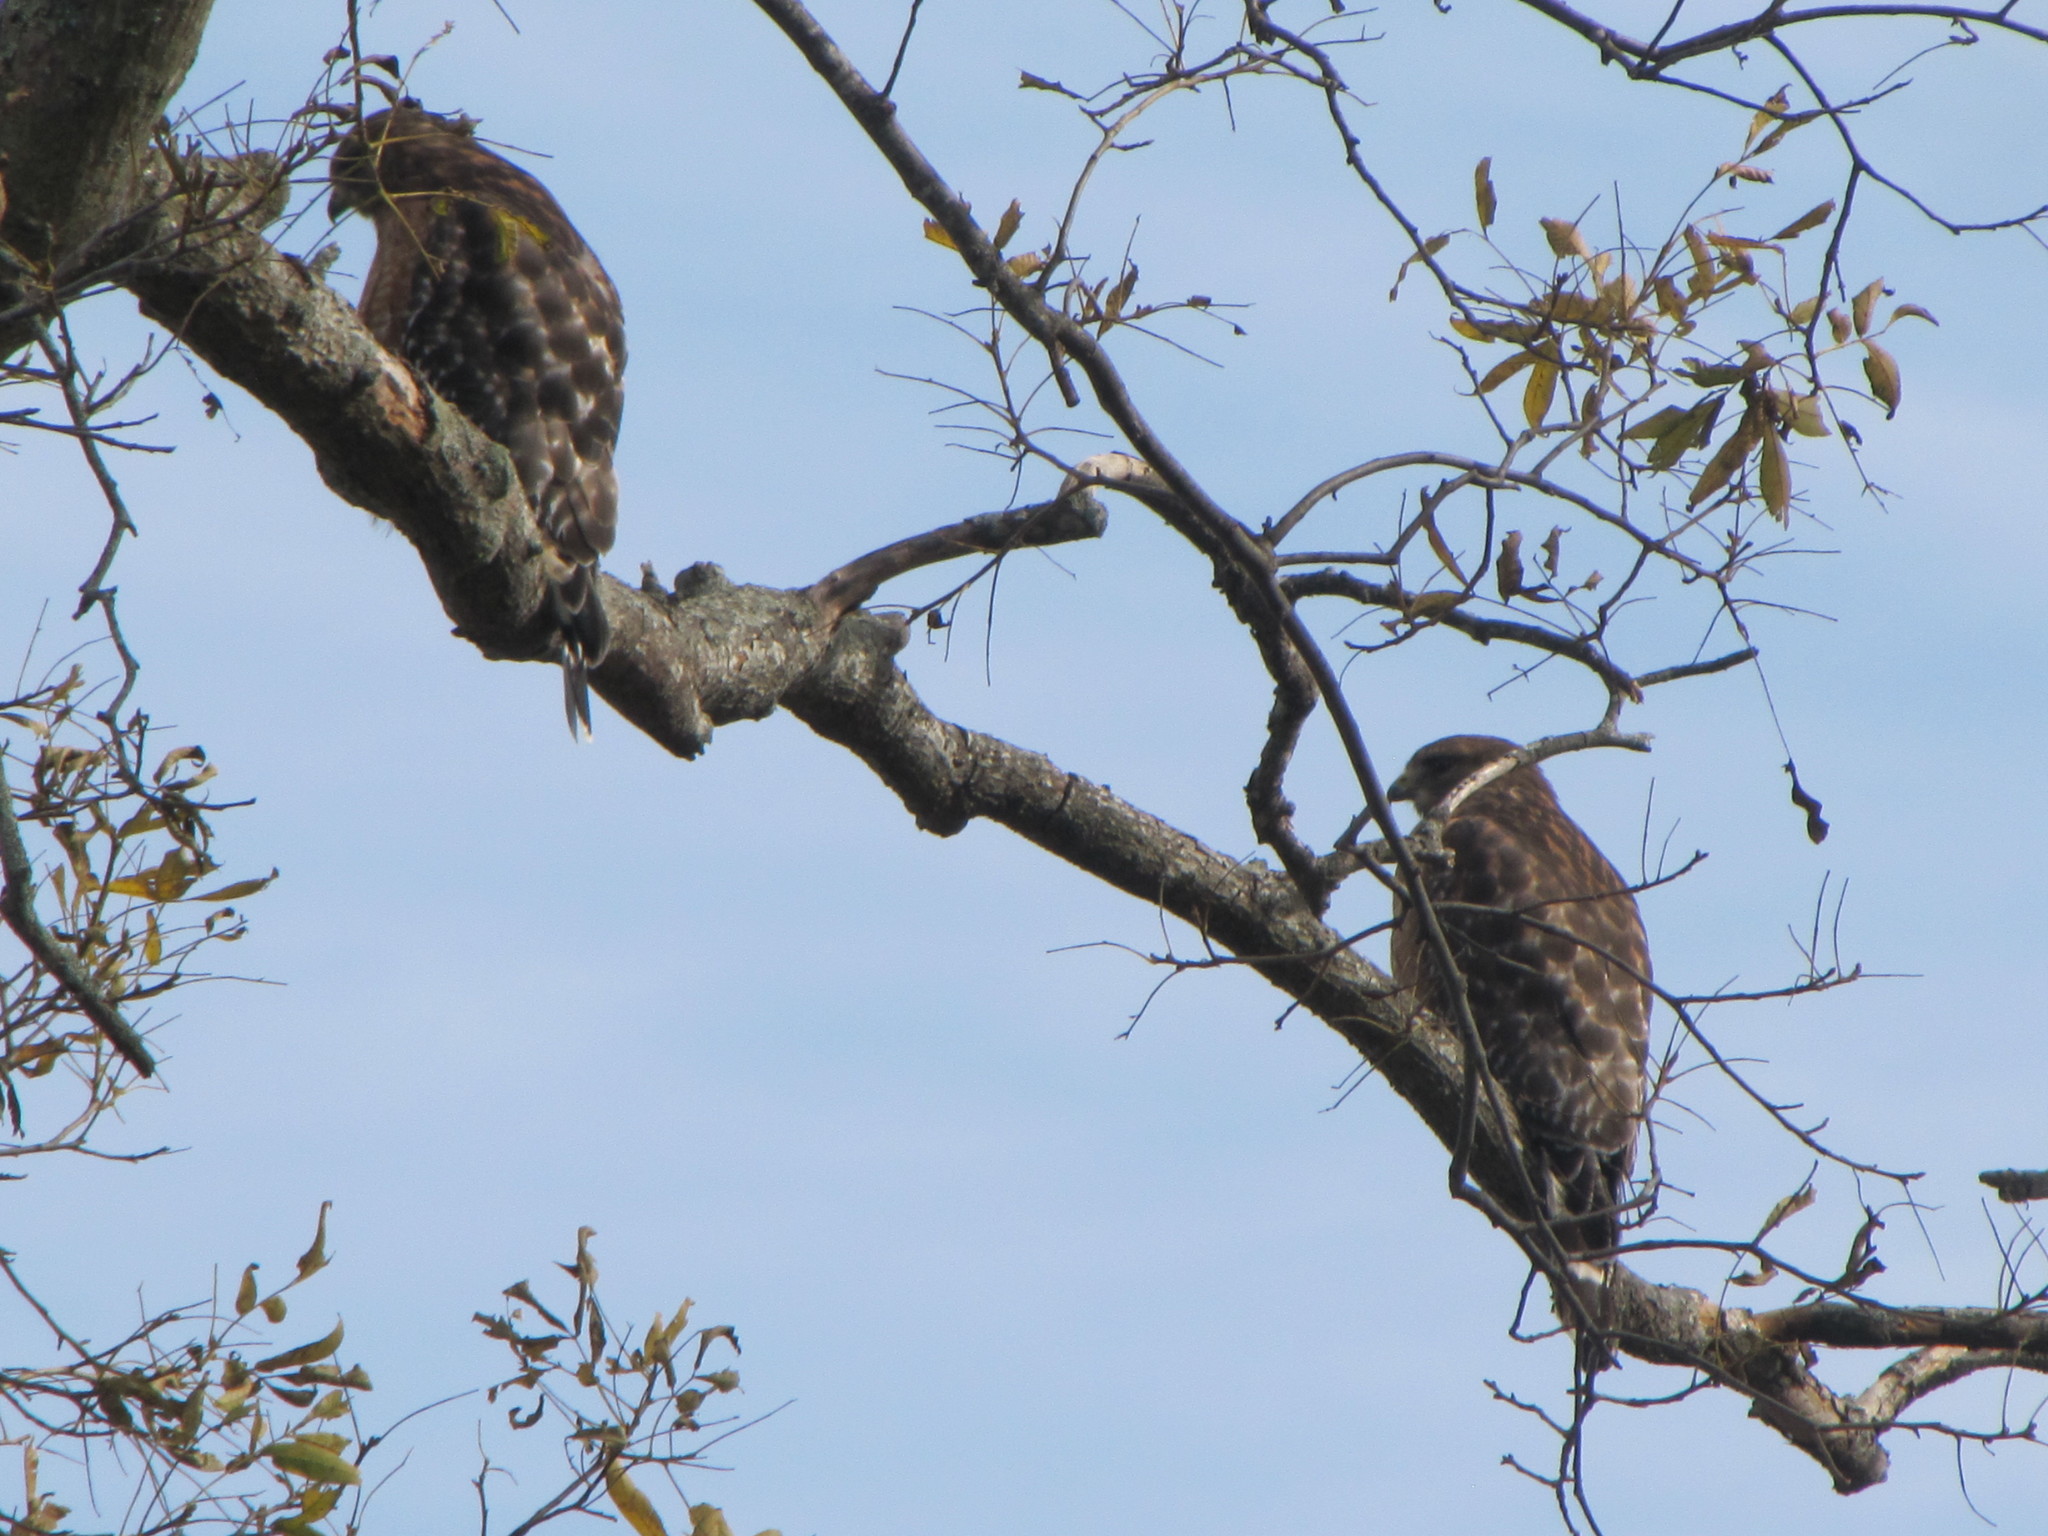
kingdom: Animalia
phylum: Chordata
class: Aves
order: Accipitriformes
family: Accipitridae
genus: Buteo
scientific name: Buteo lineatus
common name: Red-shouldered hawk
